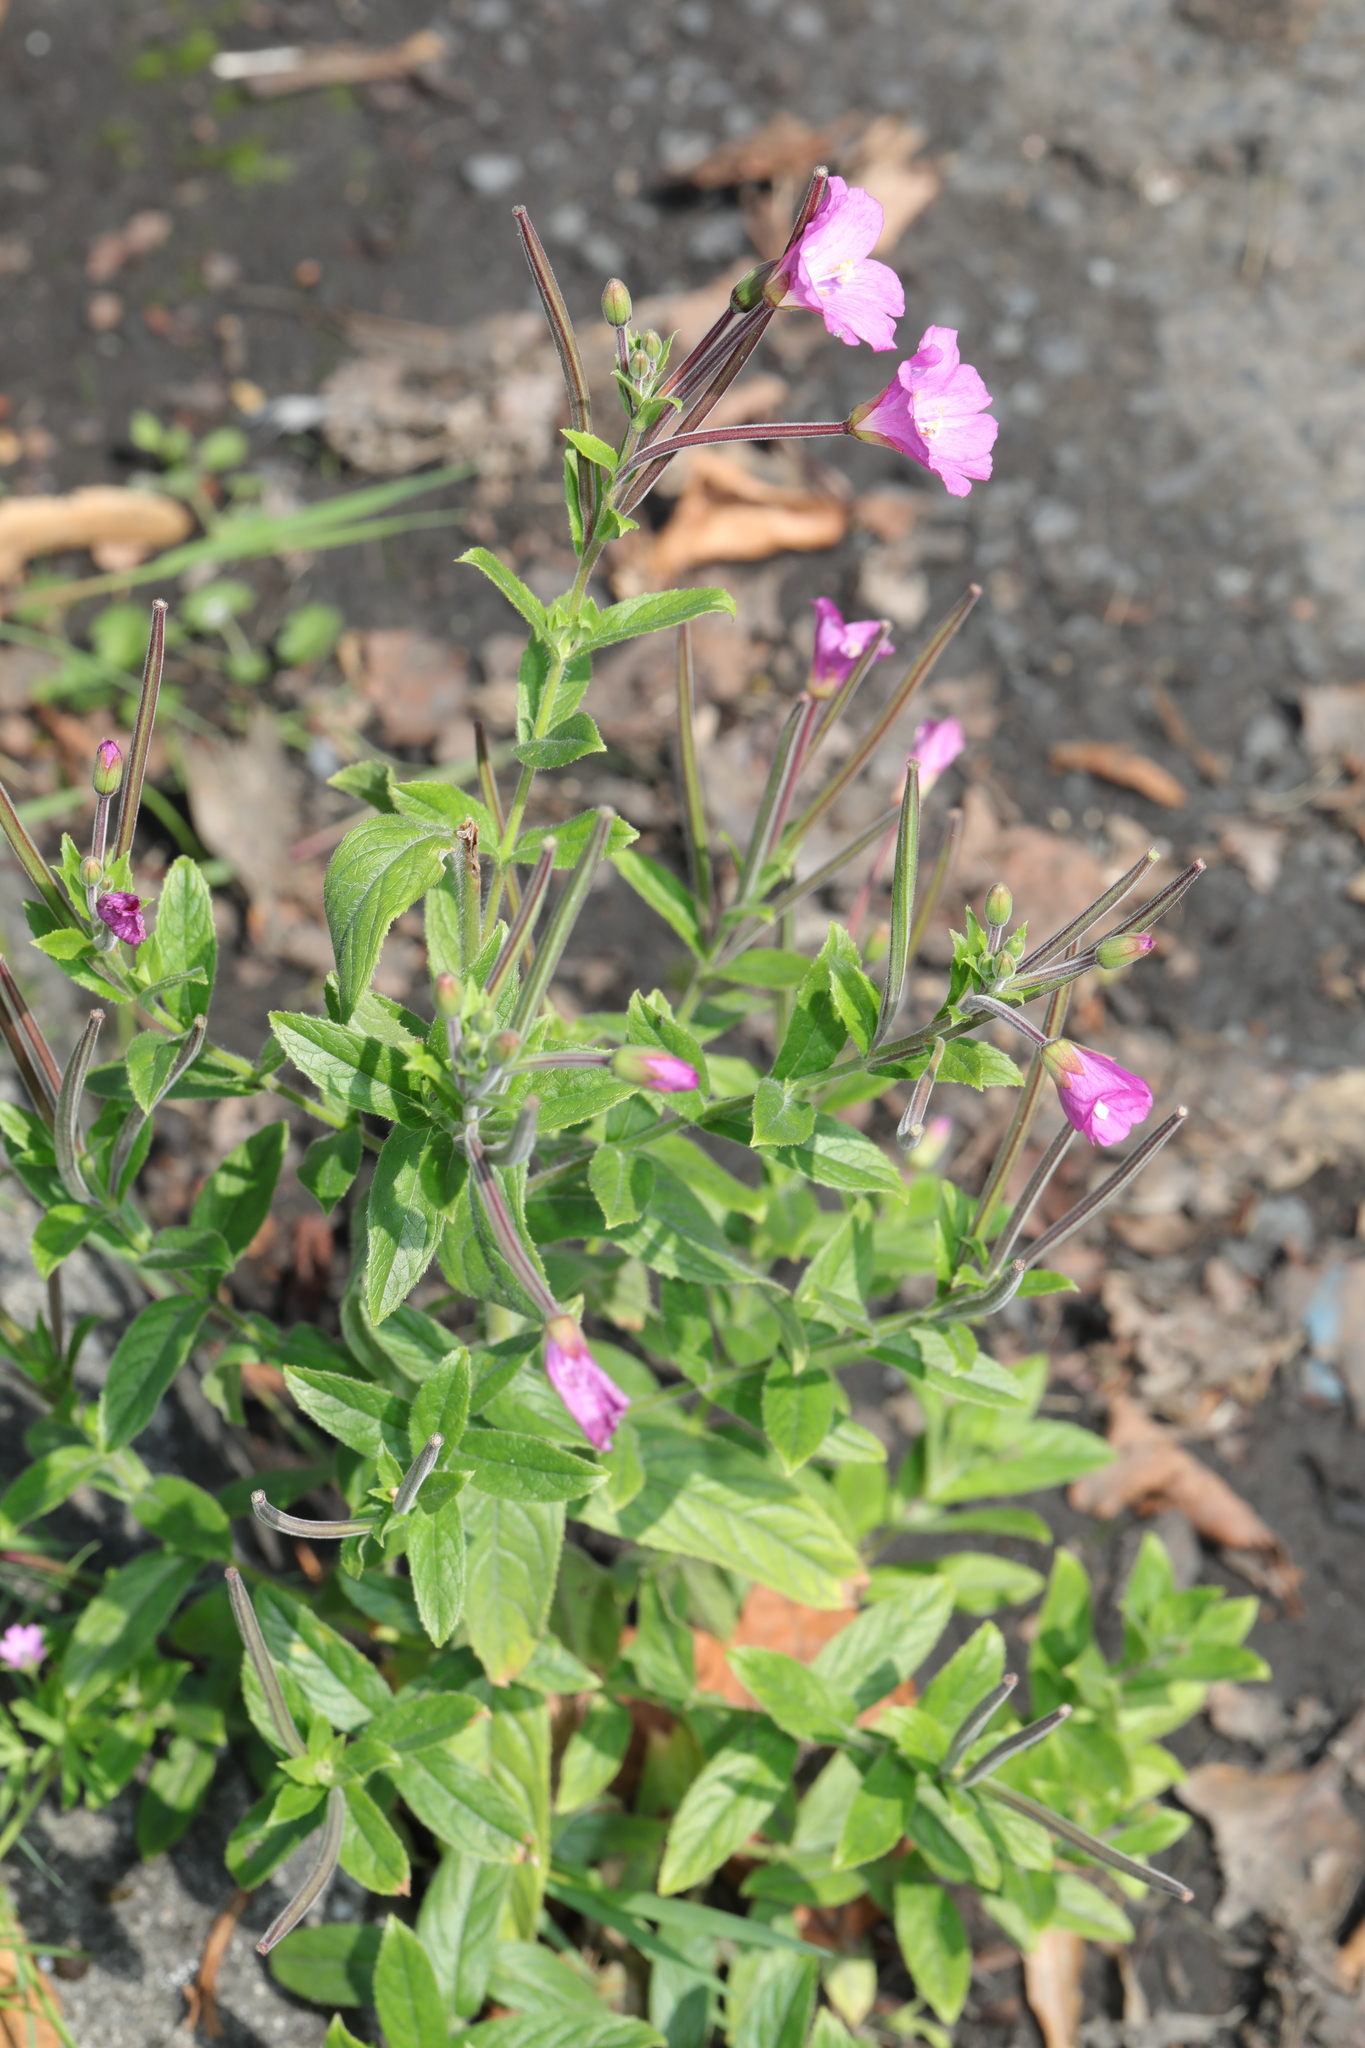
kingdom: Plantae
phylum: Tracheophyta
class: Magnoliopsida
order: Myrtales
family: Onagraceae
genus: Epilobium
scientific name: Epilobium hirsutum
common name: Great willowherb
